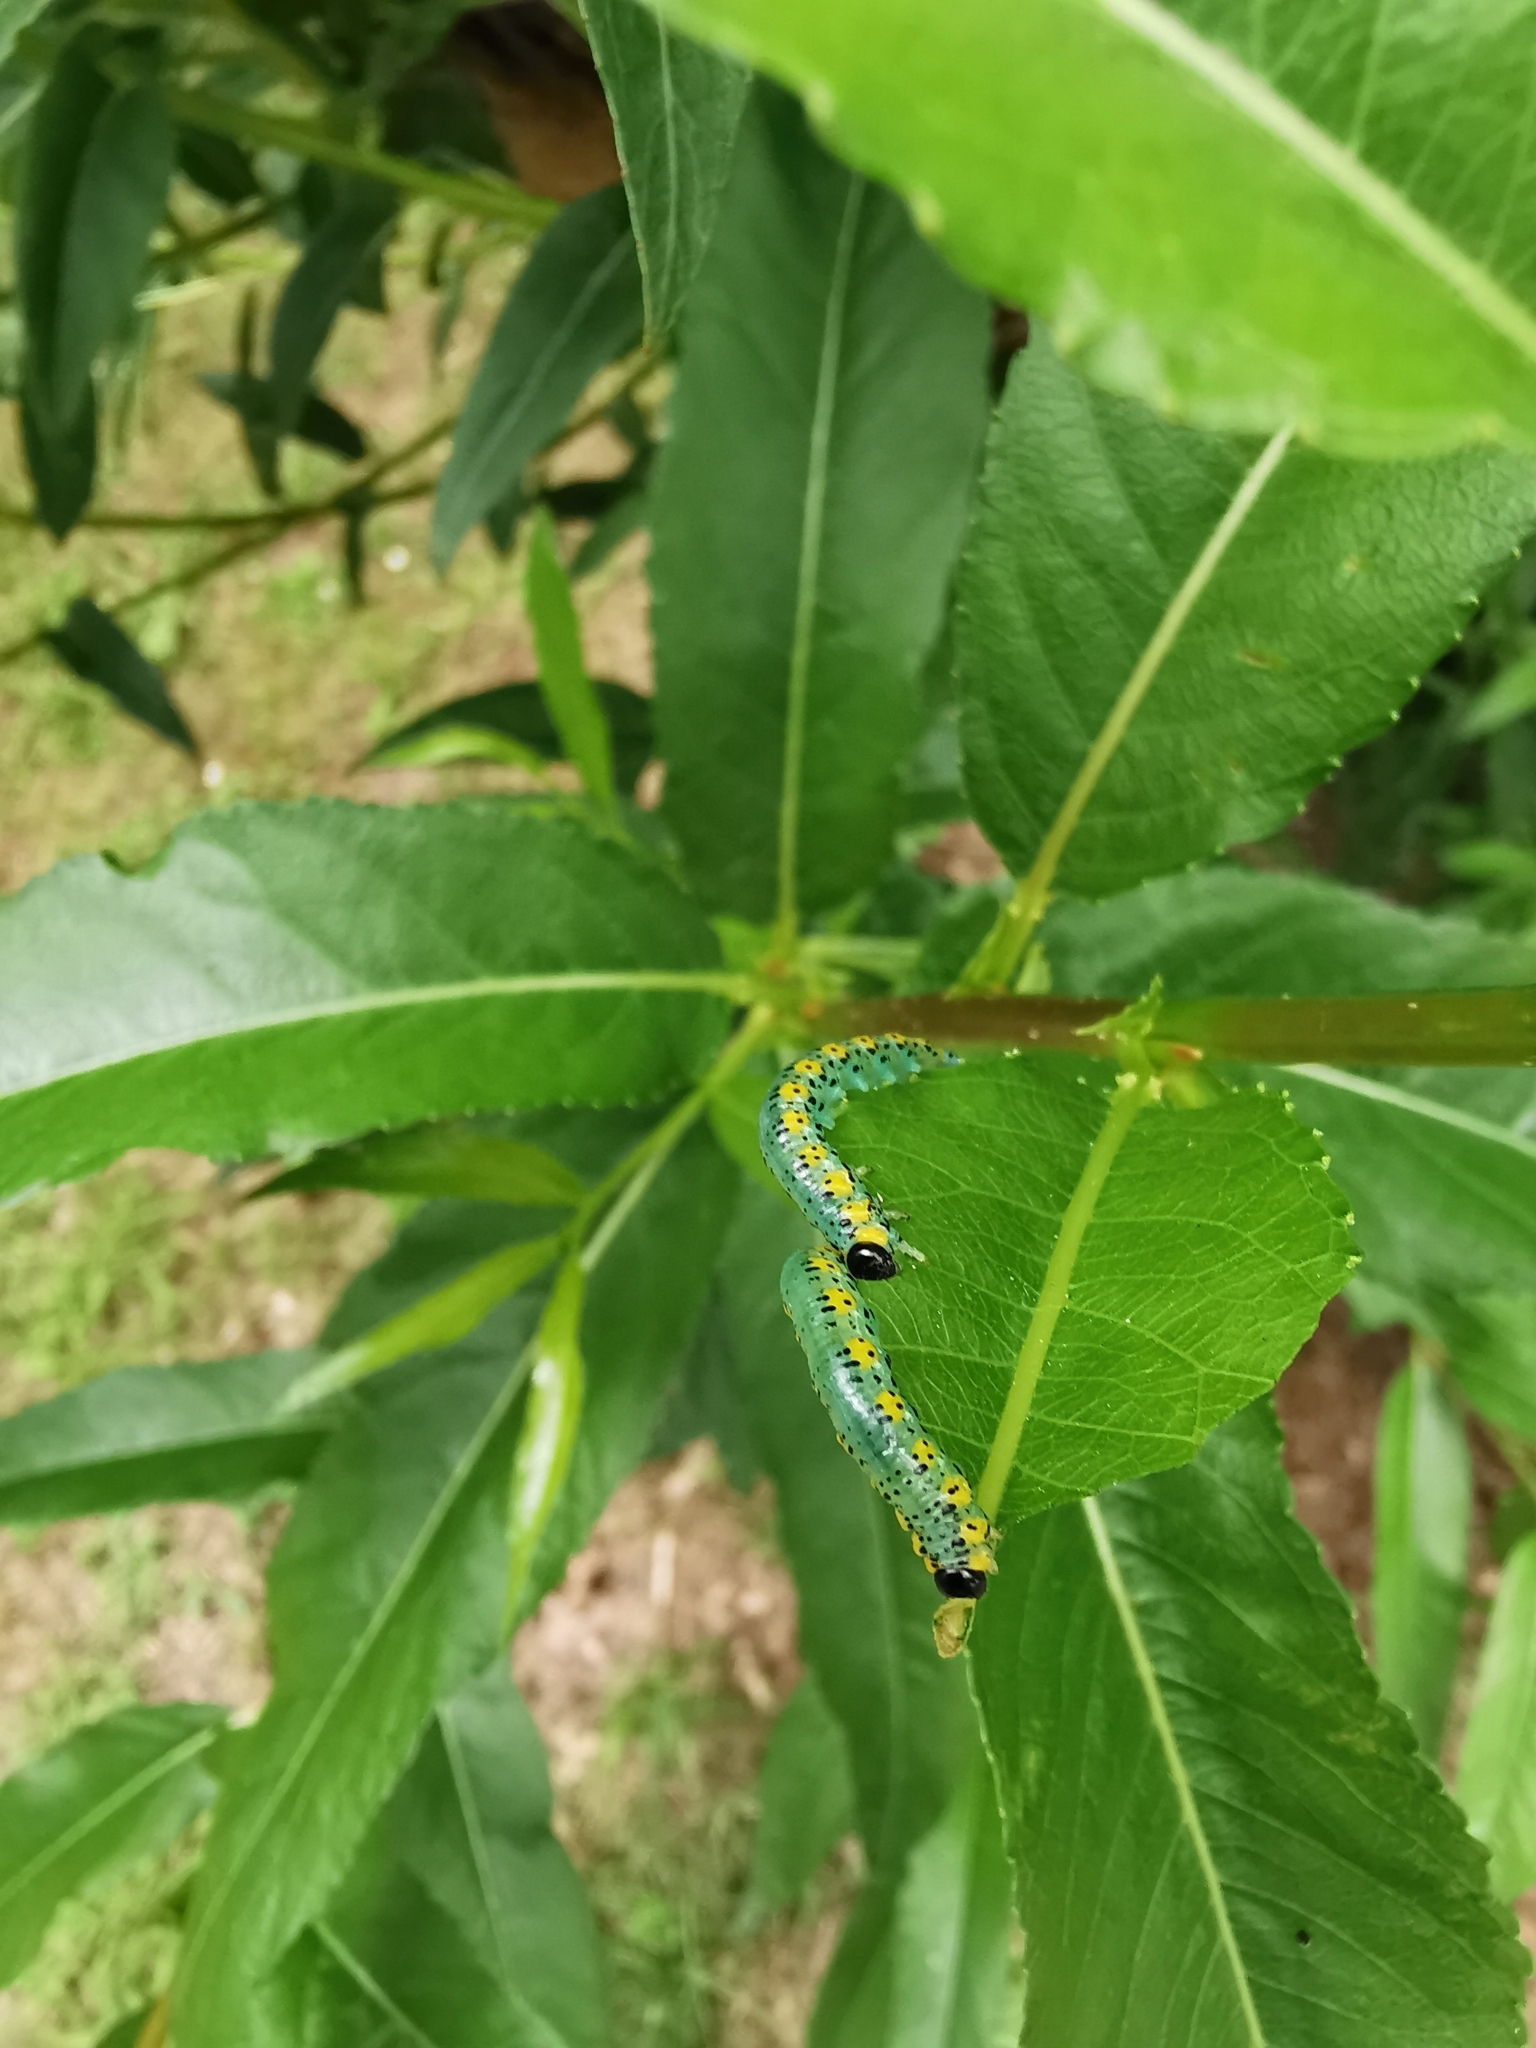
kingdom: Animalia
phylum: Arthropoda
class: Insecta
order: Hymenoptera
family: Tenthredinidae
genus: Euura
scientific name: Euura melanocephalus
